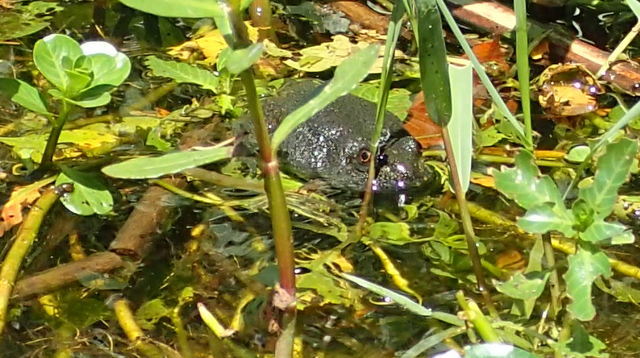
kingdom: Animalia
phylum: Chordata
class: Amphibia
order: Anura
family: Ranidae
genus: Lithobates
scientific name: Lithobates heckscheri
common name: River frog
